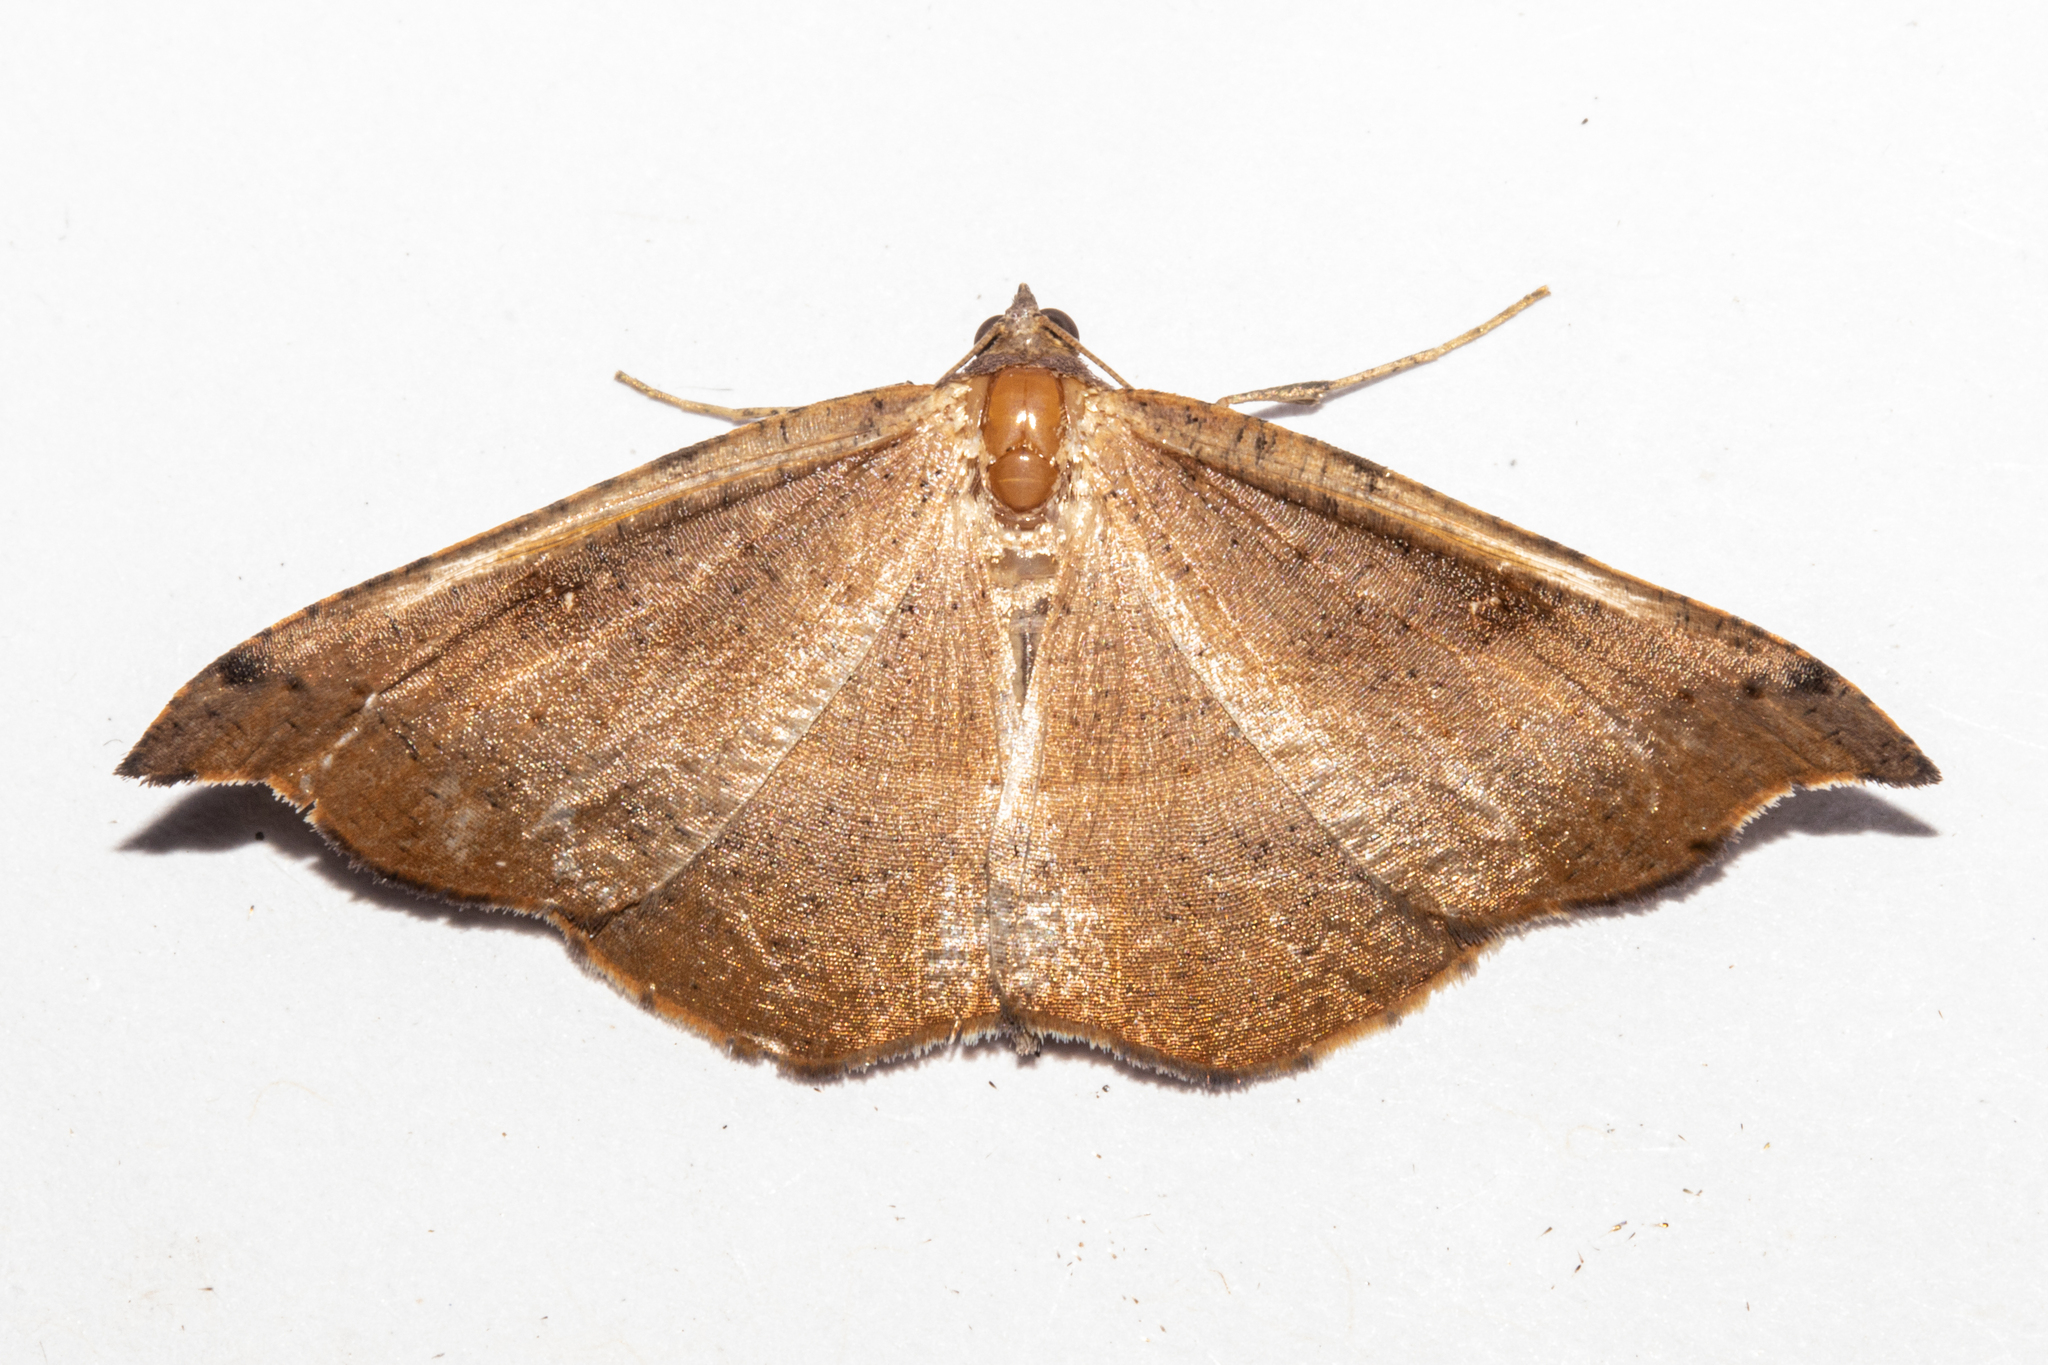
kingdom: Animalia
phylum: Arthropoda
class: Insecta
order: Lepidoptera
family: Geometridae
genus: Sarisa
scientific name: Sarisa muriferata
